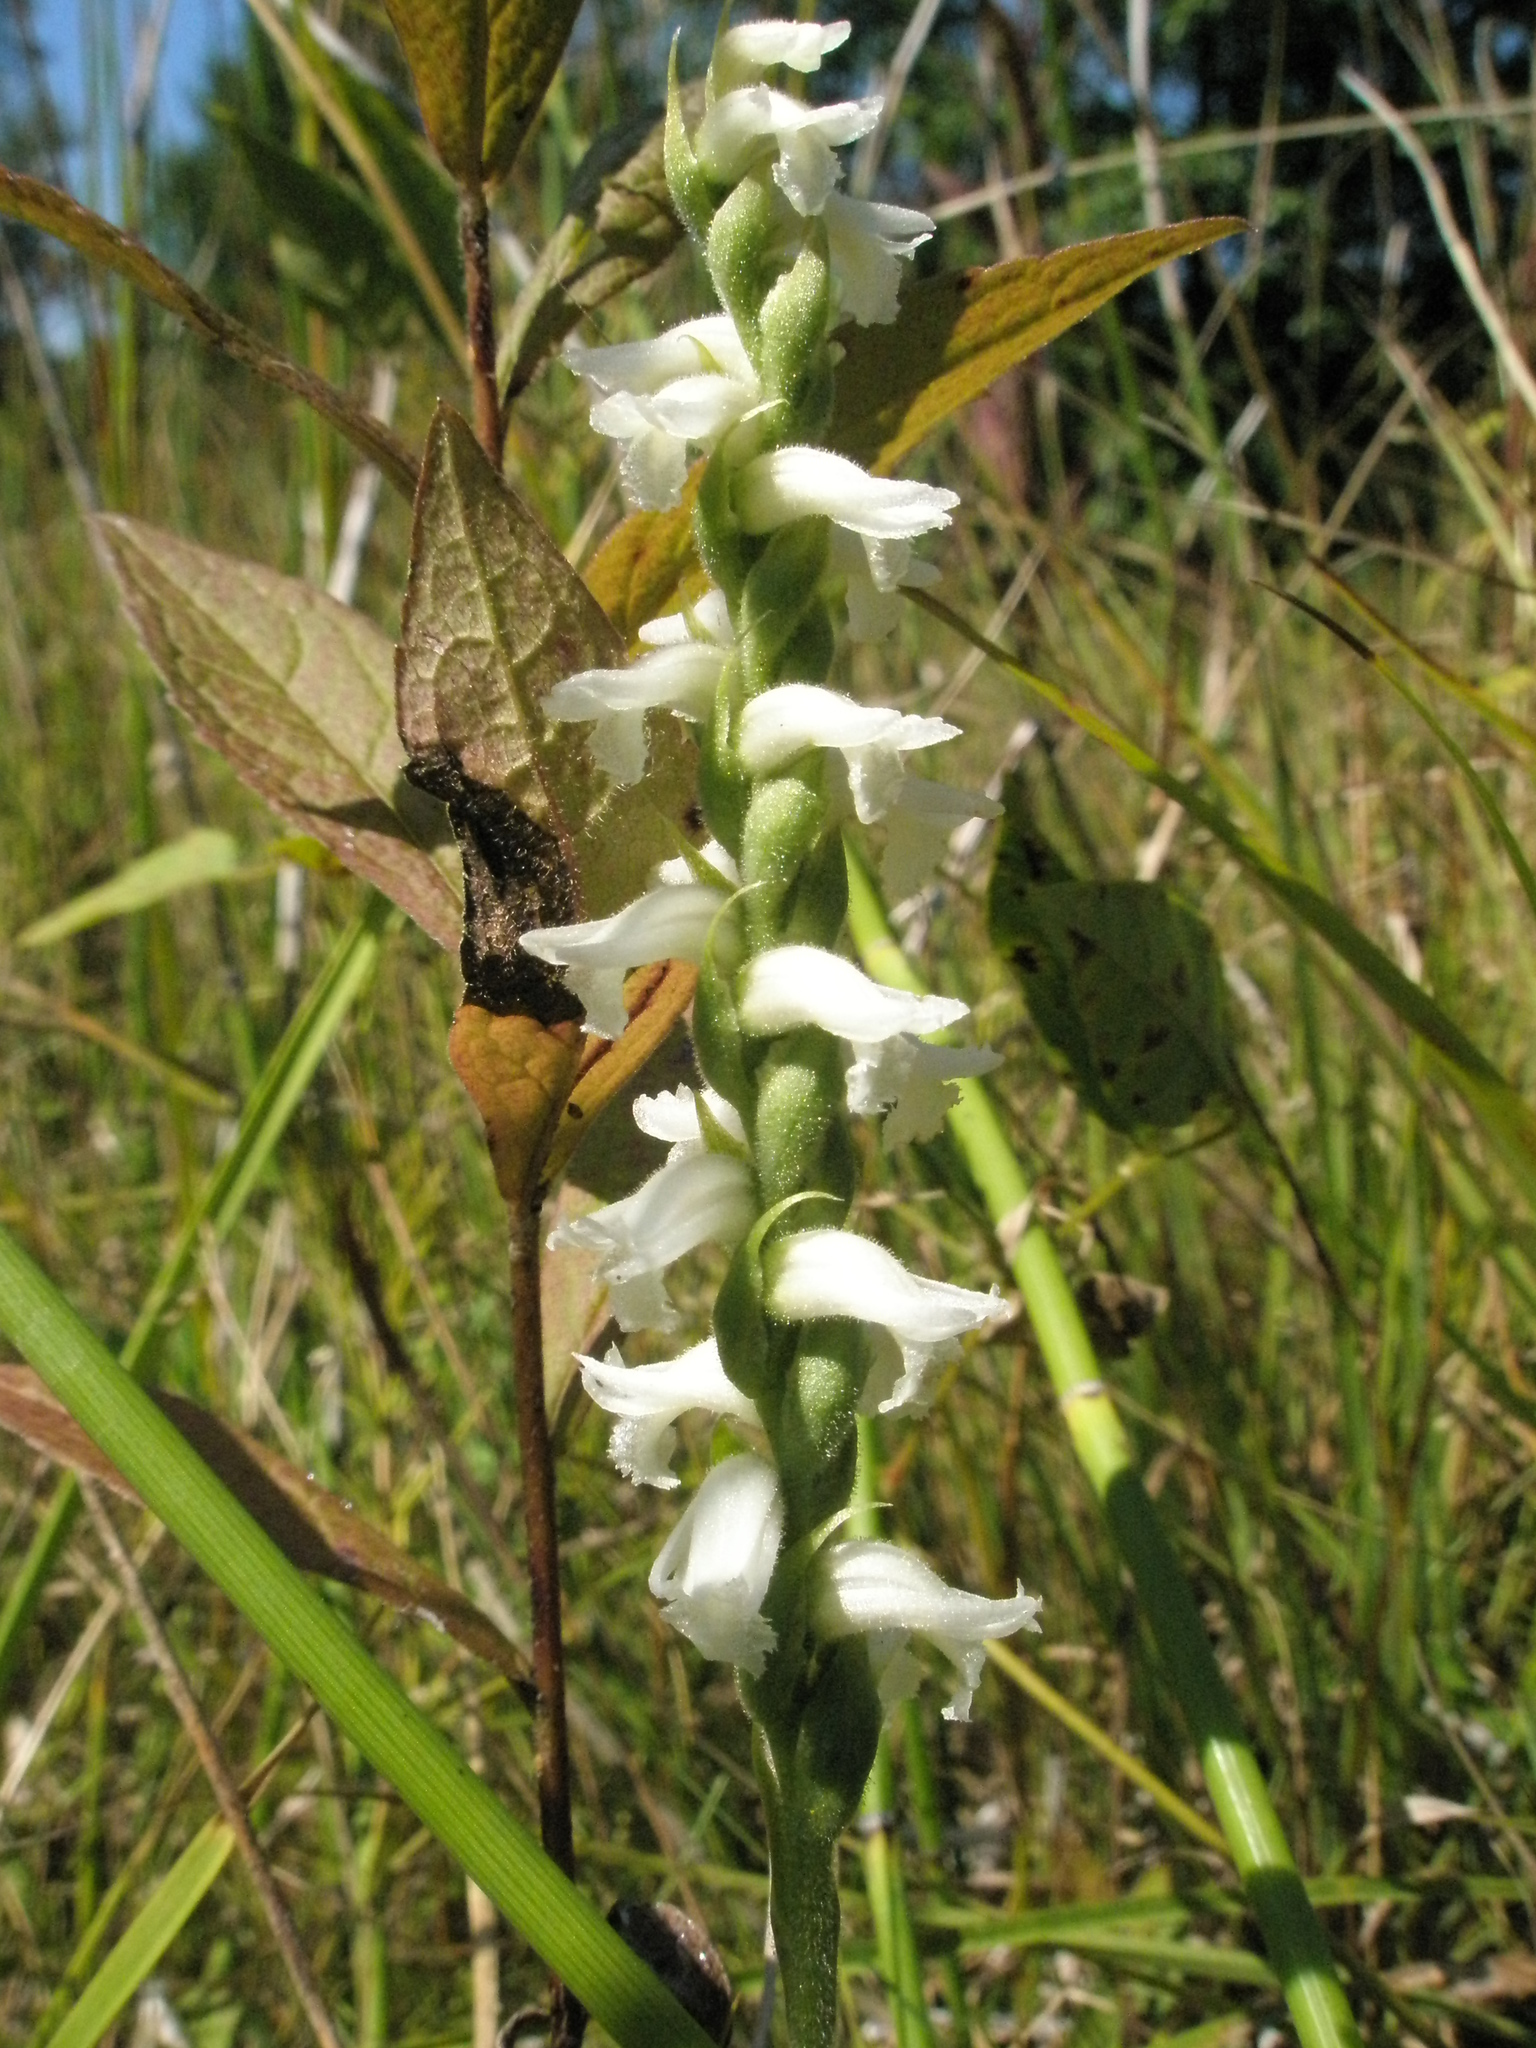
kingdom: Plantae
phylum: Tracheophyta
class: Liliopsida
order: Asparagales
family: Orchidaceae
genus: Spiranthes
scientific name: Spiranthes incurva
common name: Sphinx ladies'-tresses
